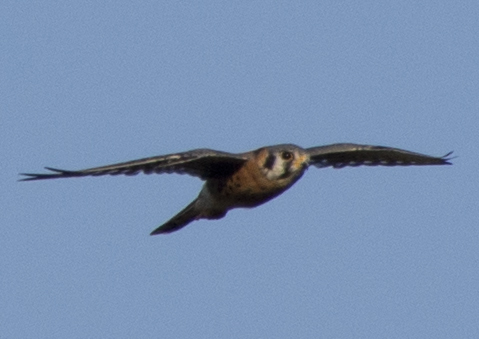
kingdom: Animalia
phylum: Chordata
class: Aves
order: Falconiformes
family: Falconidae
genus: Falco
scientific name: Falco sparverius
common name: American kestrel
